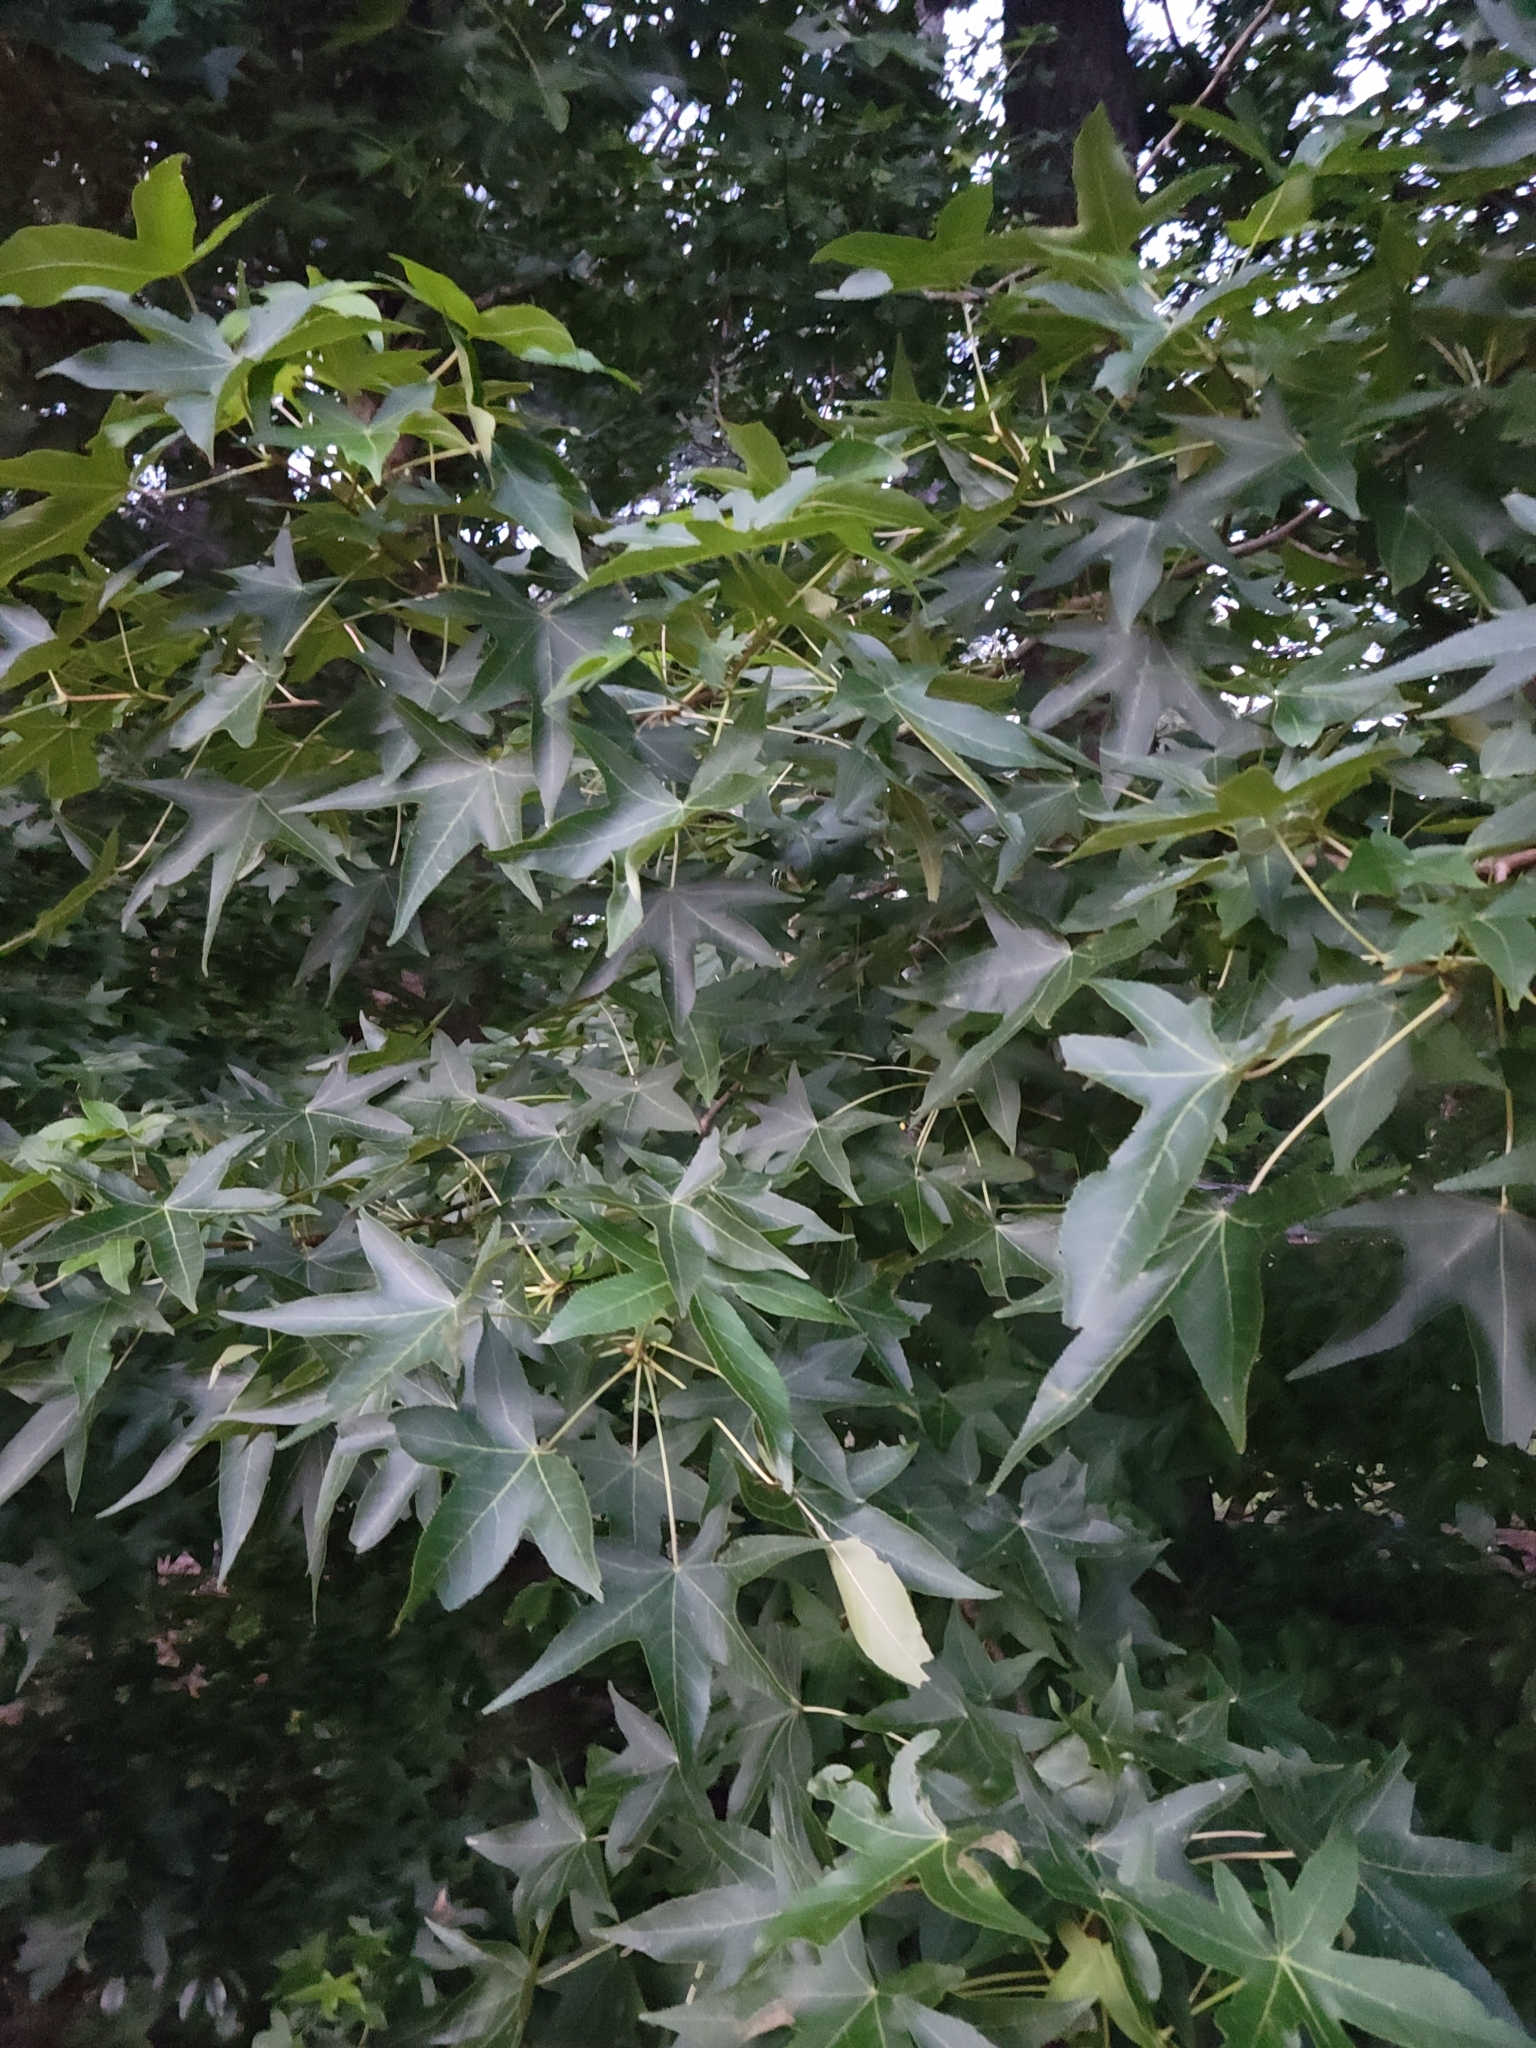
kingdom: Plantae
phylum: Tracheophyta
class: Magnoliopsida
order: Saxifragales
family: Altingiaceae
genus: Liquidambar
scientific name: Liquidambar styraciflua
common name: Sweet gum
